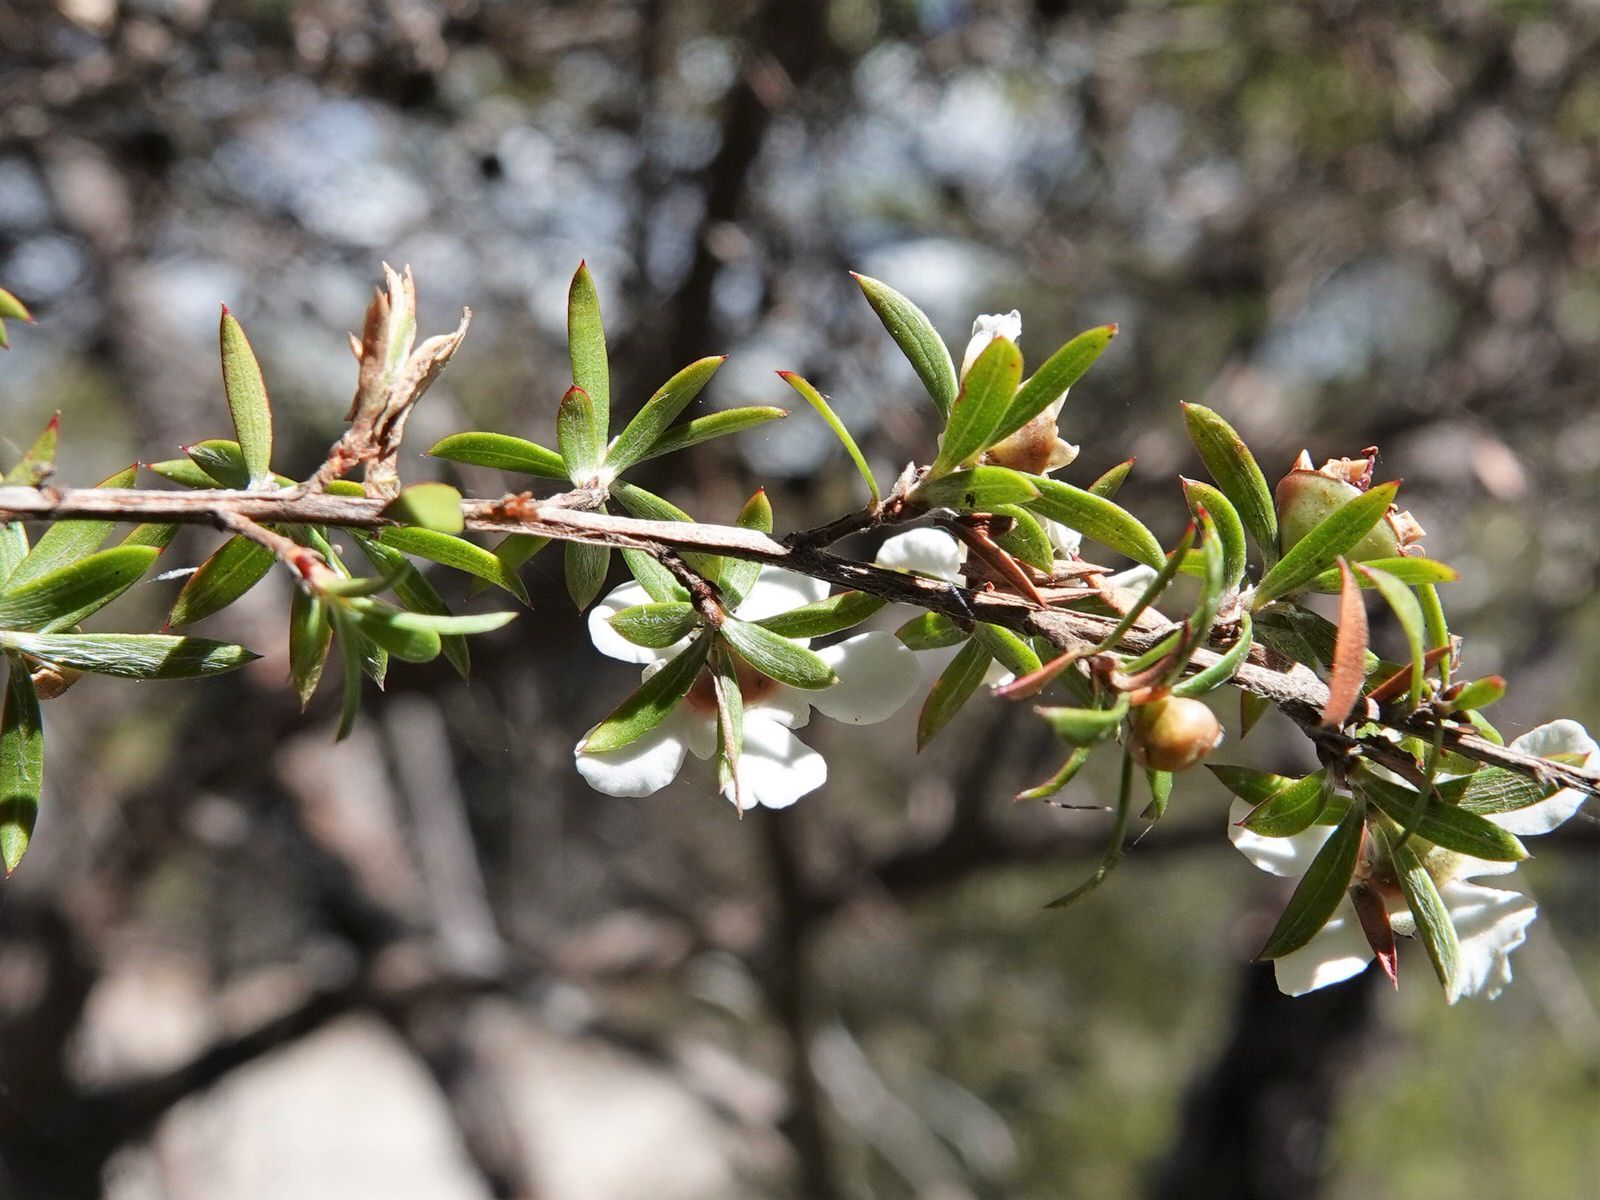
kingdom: Plantae
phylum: Tracheophyta
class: Magnoliopsida
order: Myrtales
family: Myrtaceae
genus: Leptospermum
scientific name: Leptospermum scoparium
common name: Broom tea-tree
